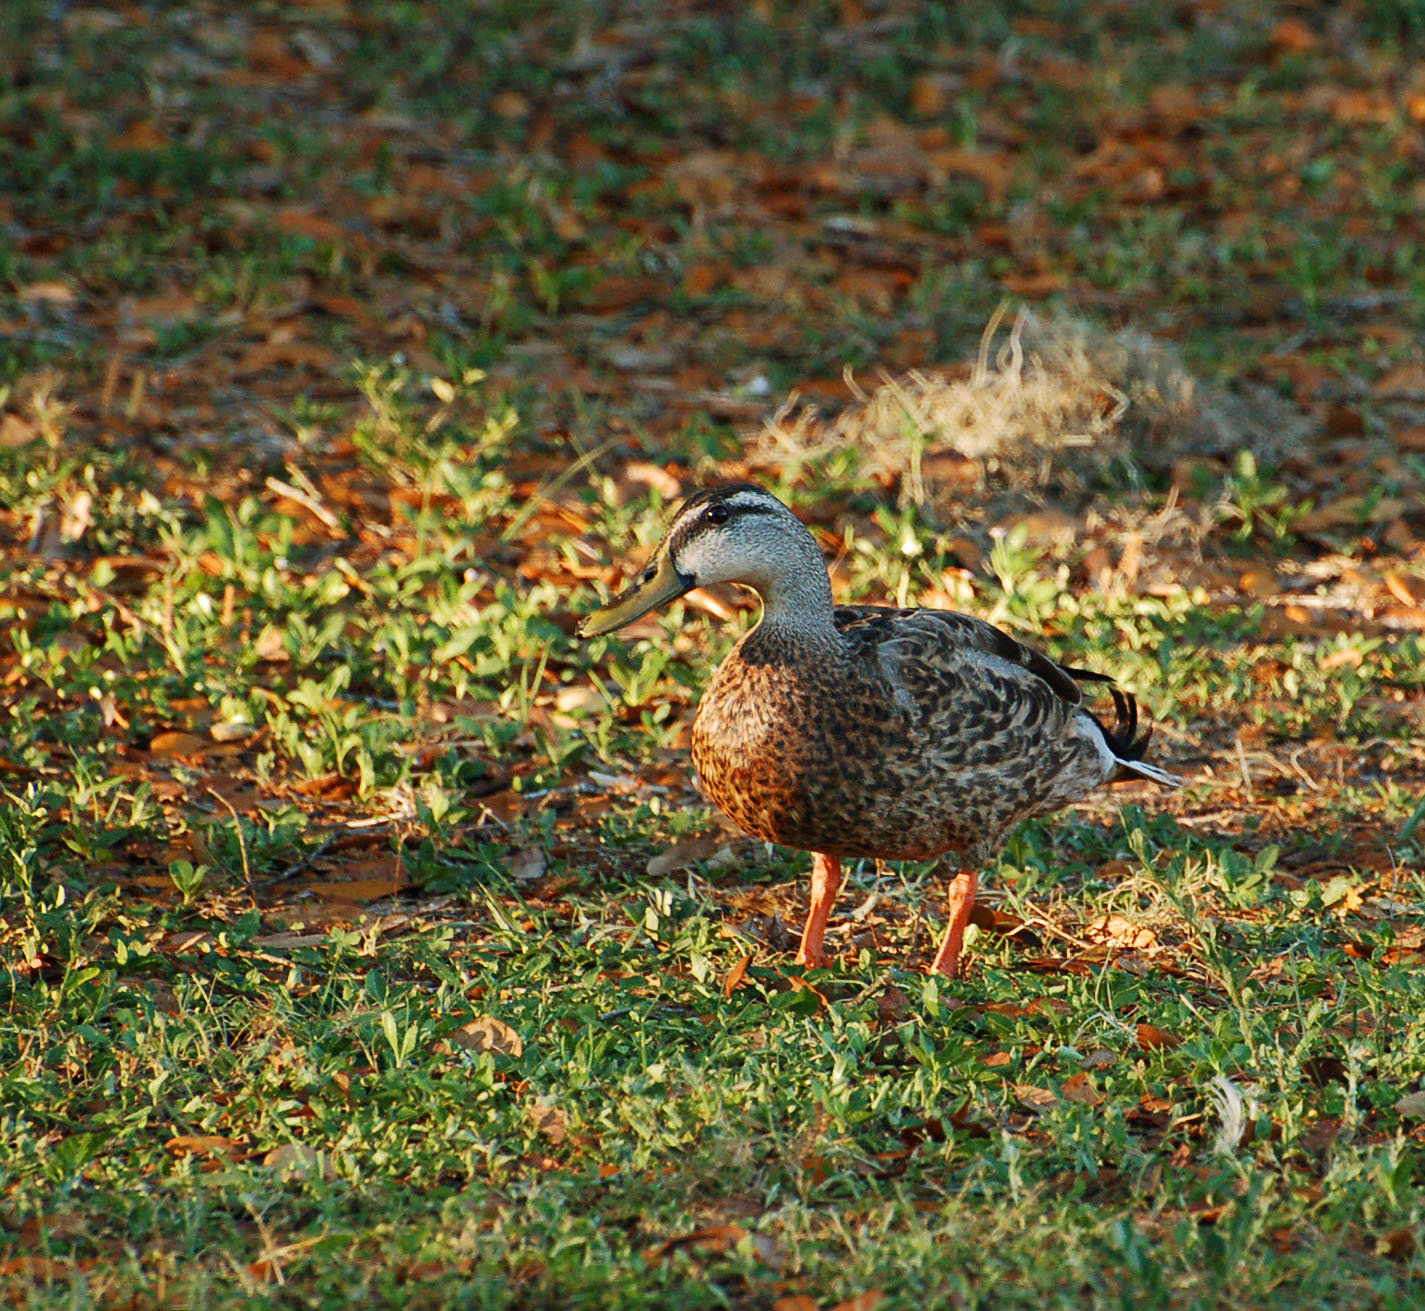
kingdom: Animalia
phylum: Chordata
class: Aves
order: Anseriformes
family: Anatidae
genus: Anas
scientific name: Anas
